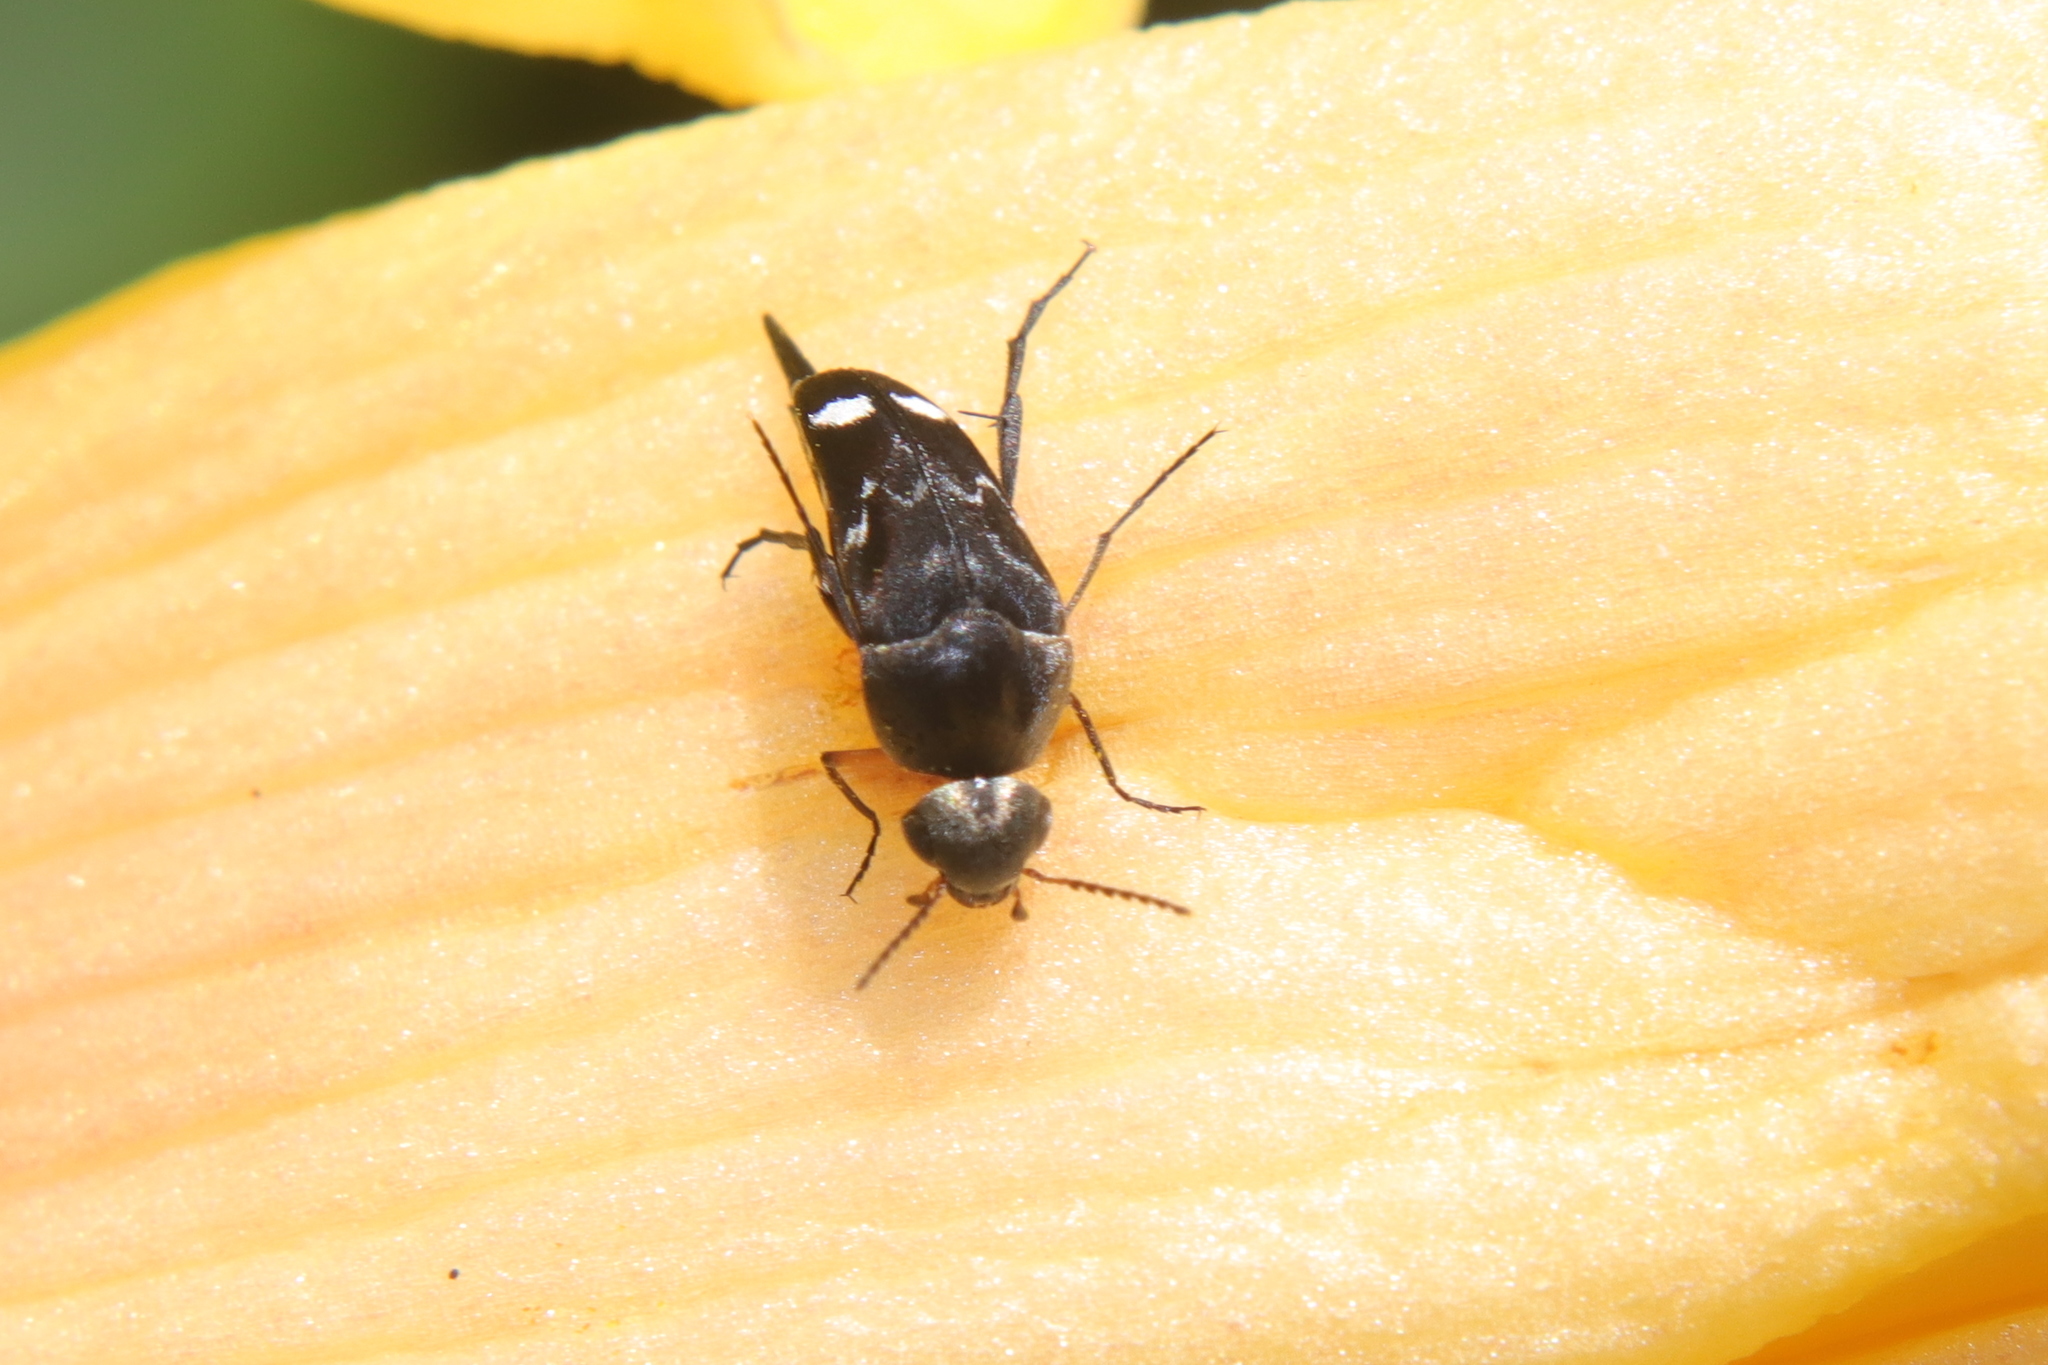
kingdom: Animalia
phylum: Arthropoda
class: Insecta
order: Coleoptera
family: Mordellidae
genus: Mordella
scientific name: Mordella
